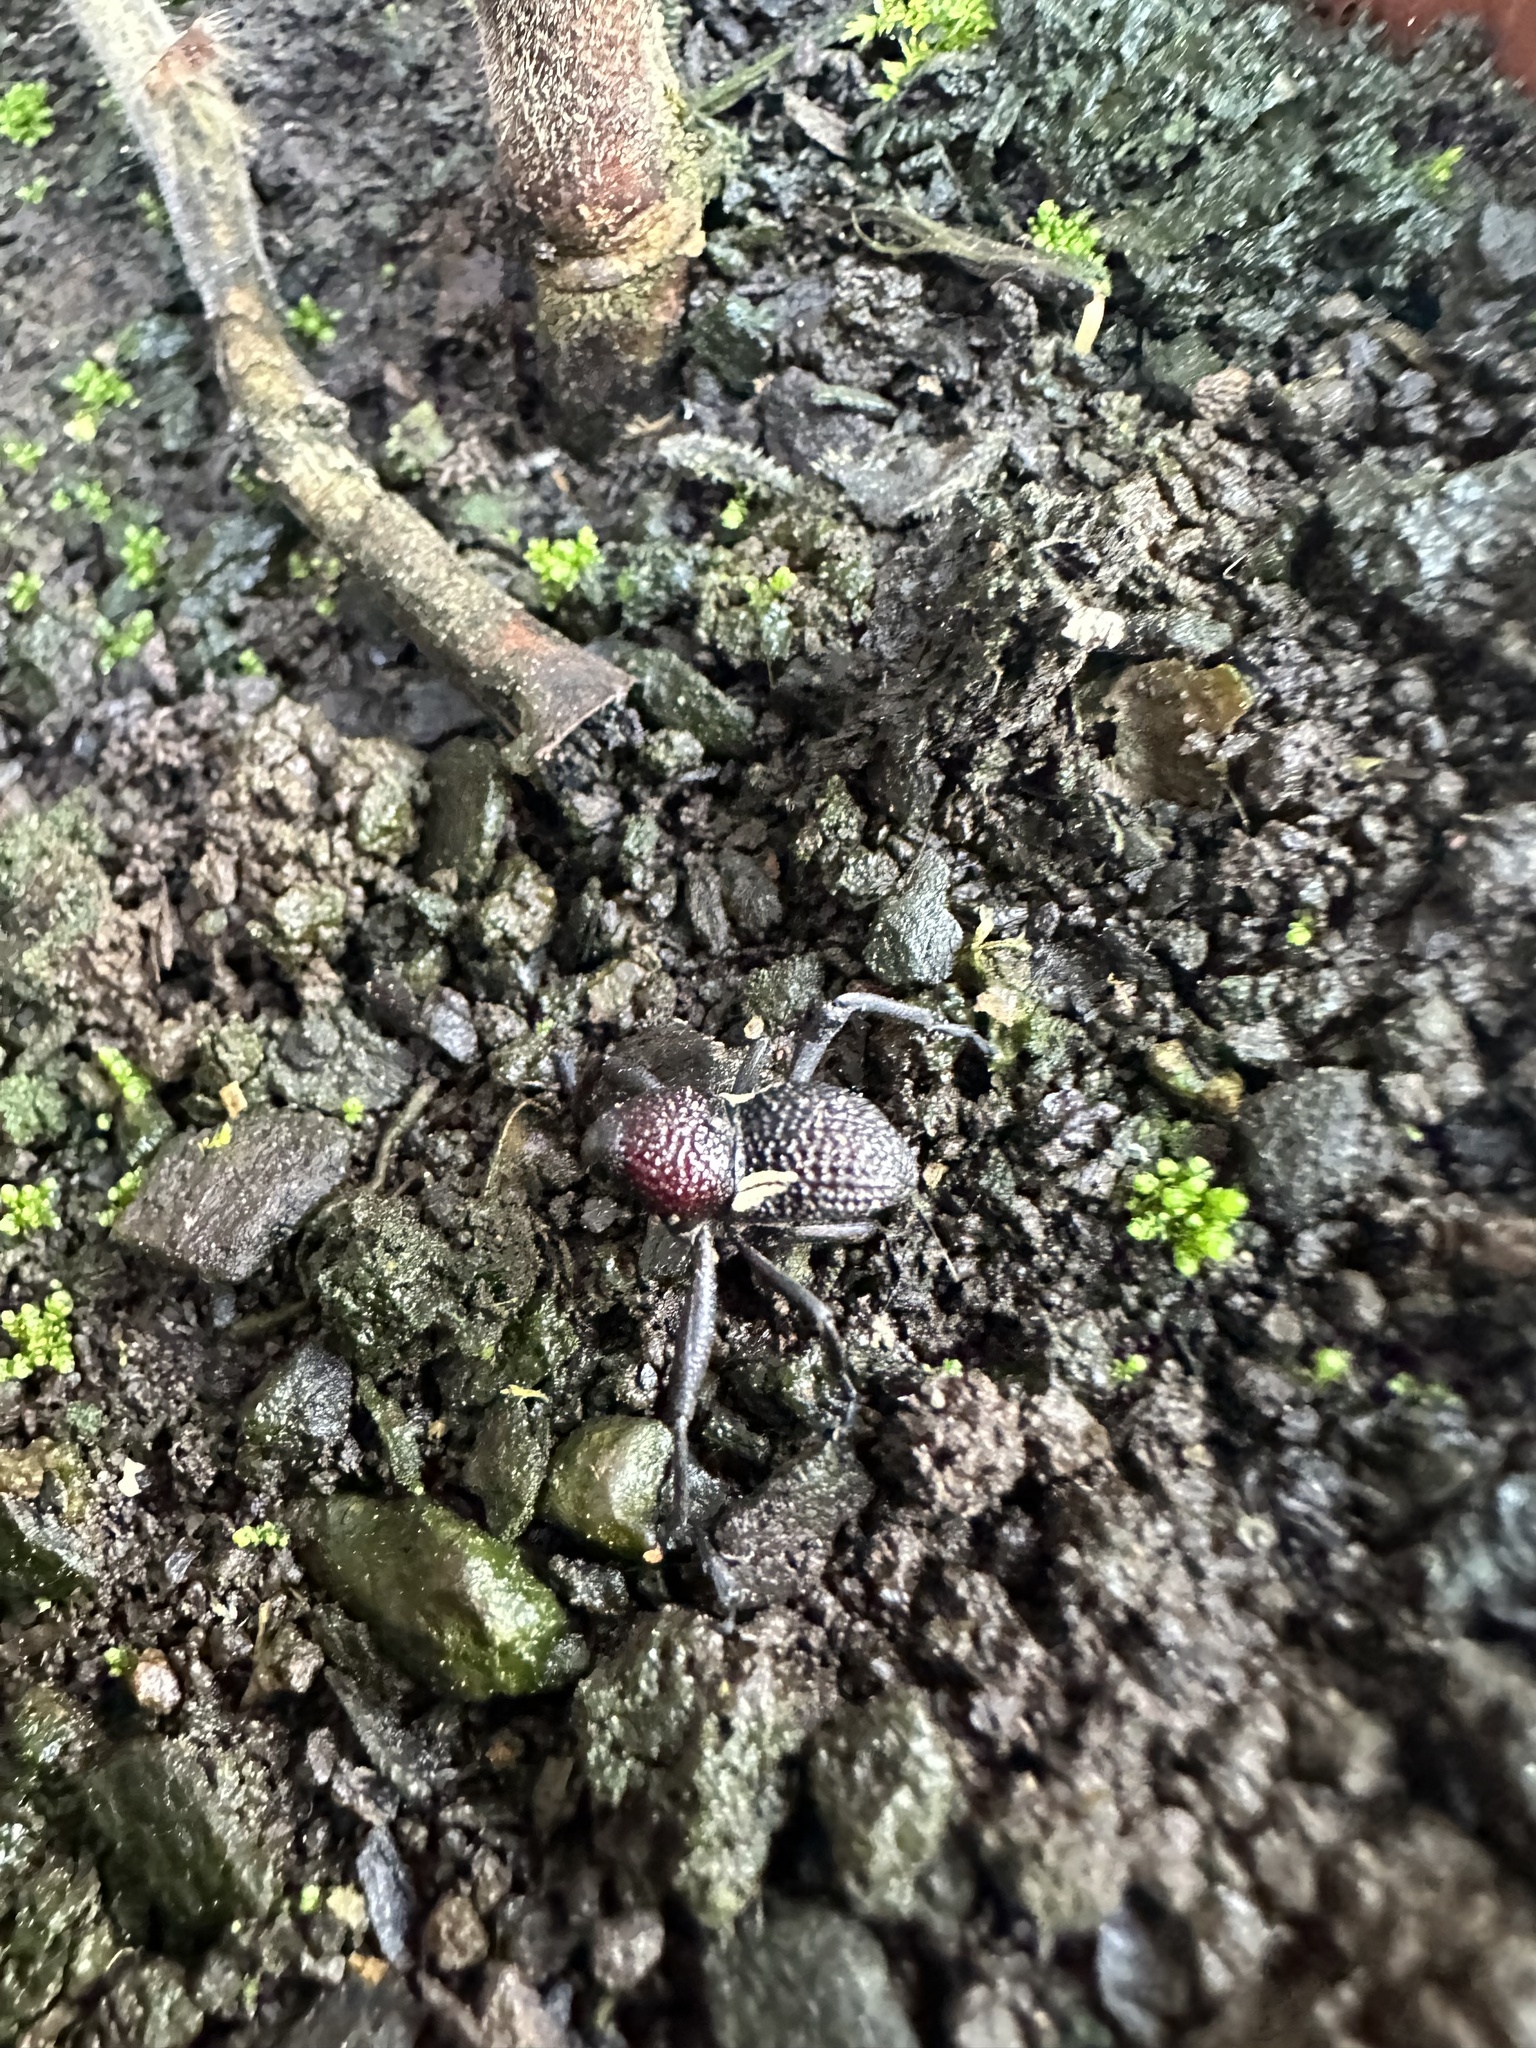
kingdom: Animalia
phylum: Arthropoda
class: Insecta
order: Coleoptera
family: Curculionidae
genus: Rhyephenes
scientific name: Rhyephenes humeralis
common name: Araè±ita chilena del pino
